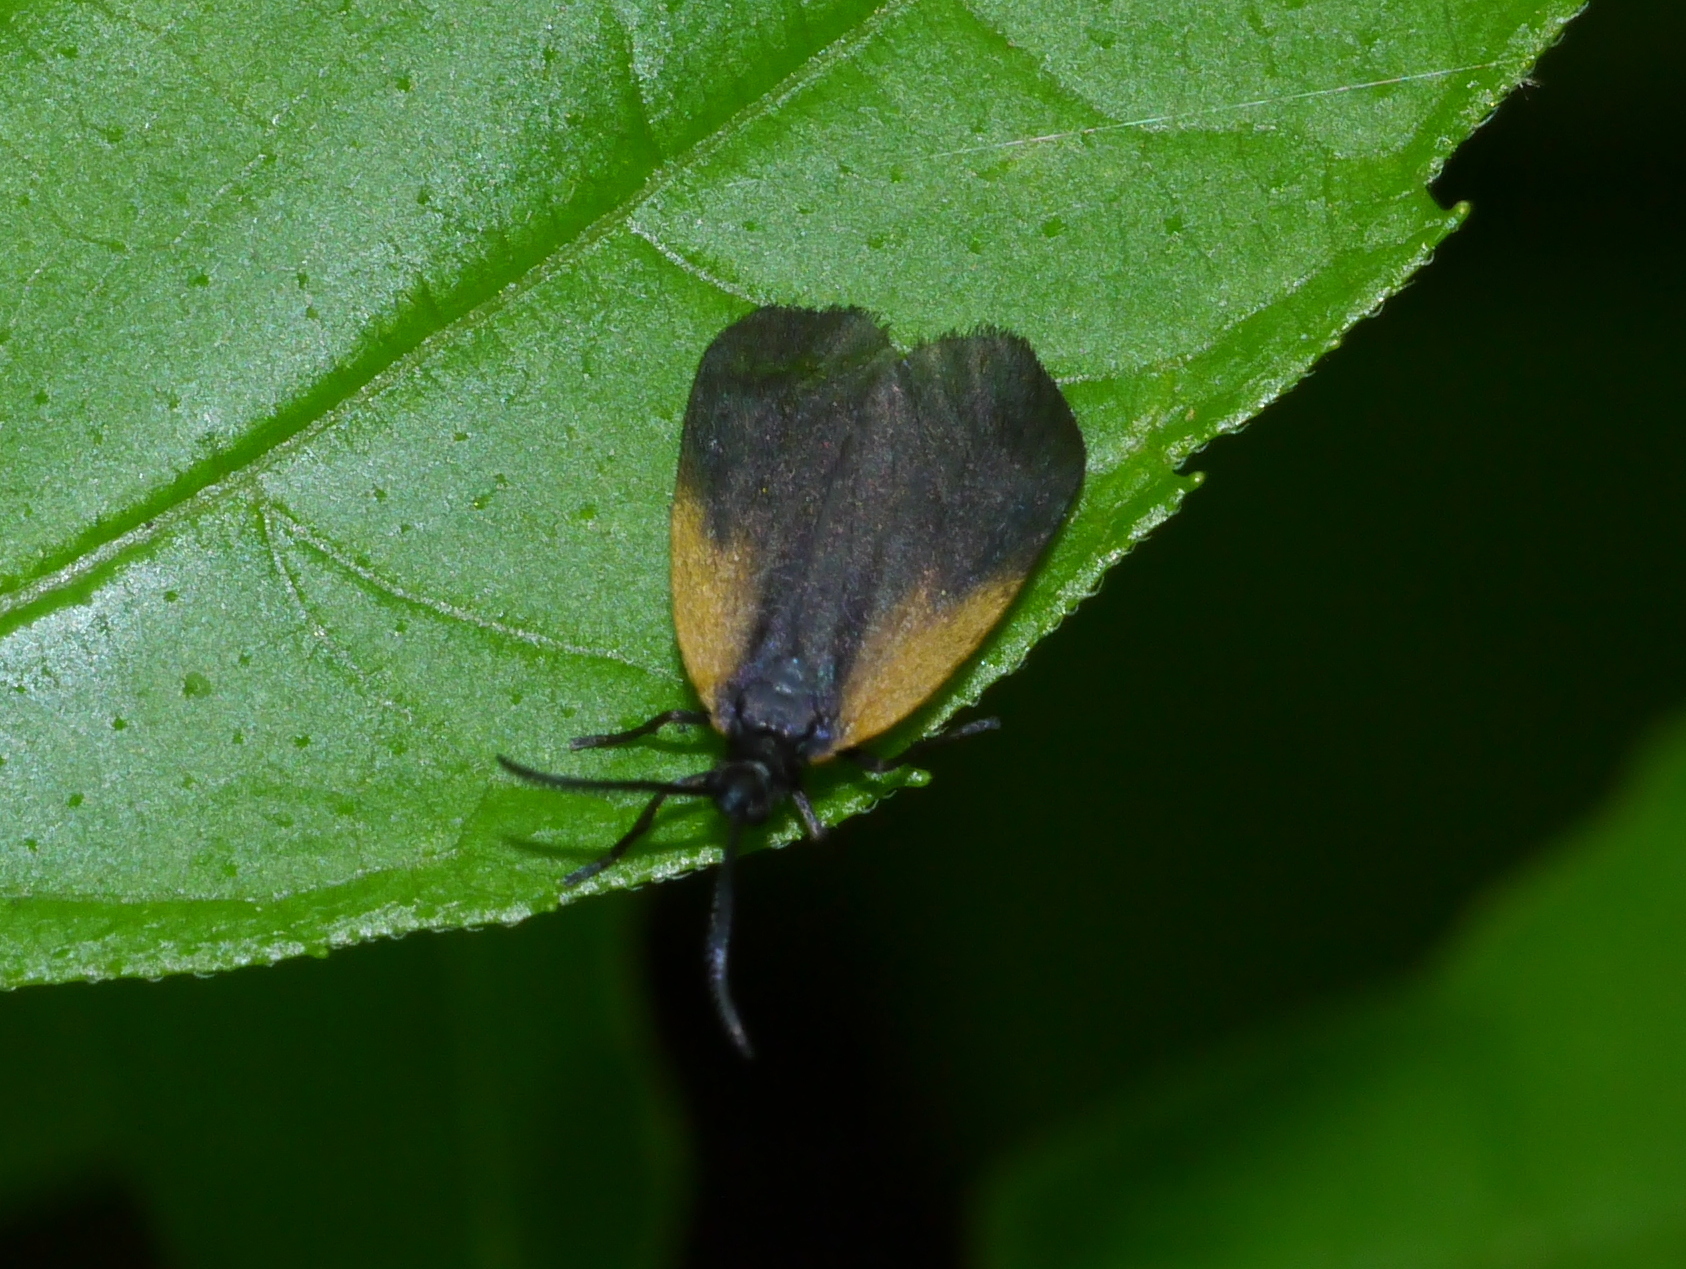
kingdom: Animalia
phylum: Arthropoda
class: Insecta
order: Lepidoptera
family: Zygaenidae
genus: Malthaca
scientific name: Malthaca dimidiata
